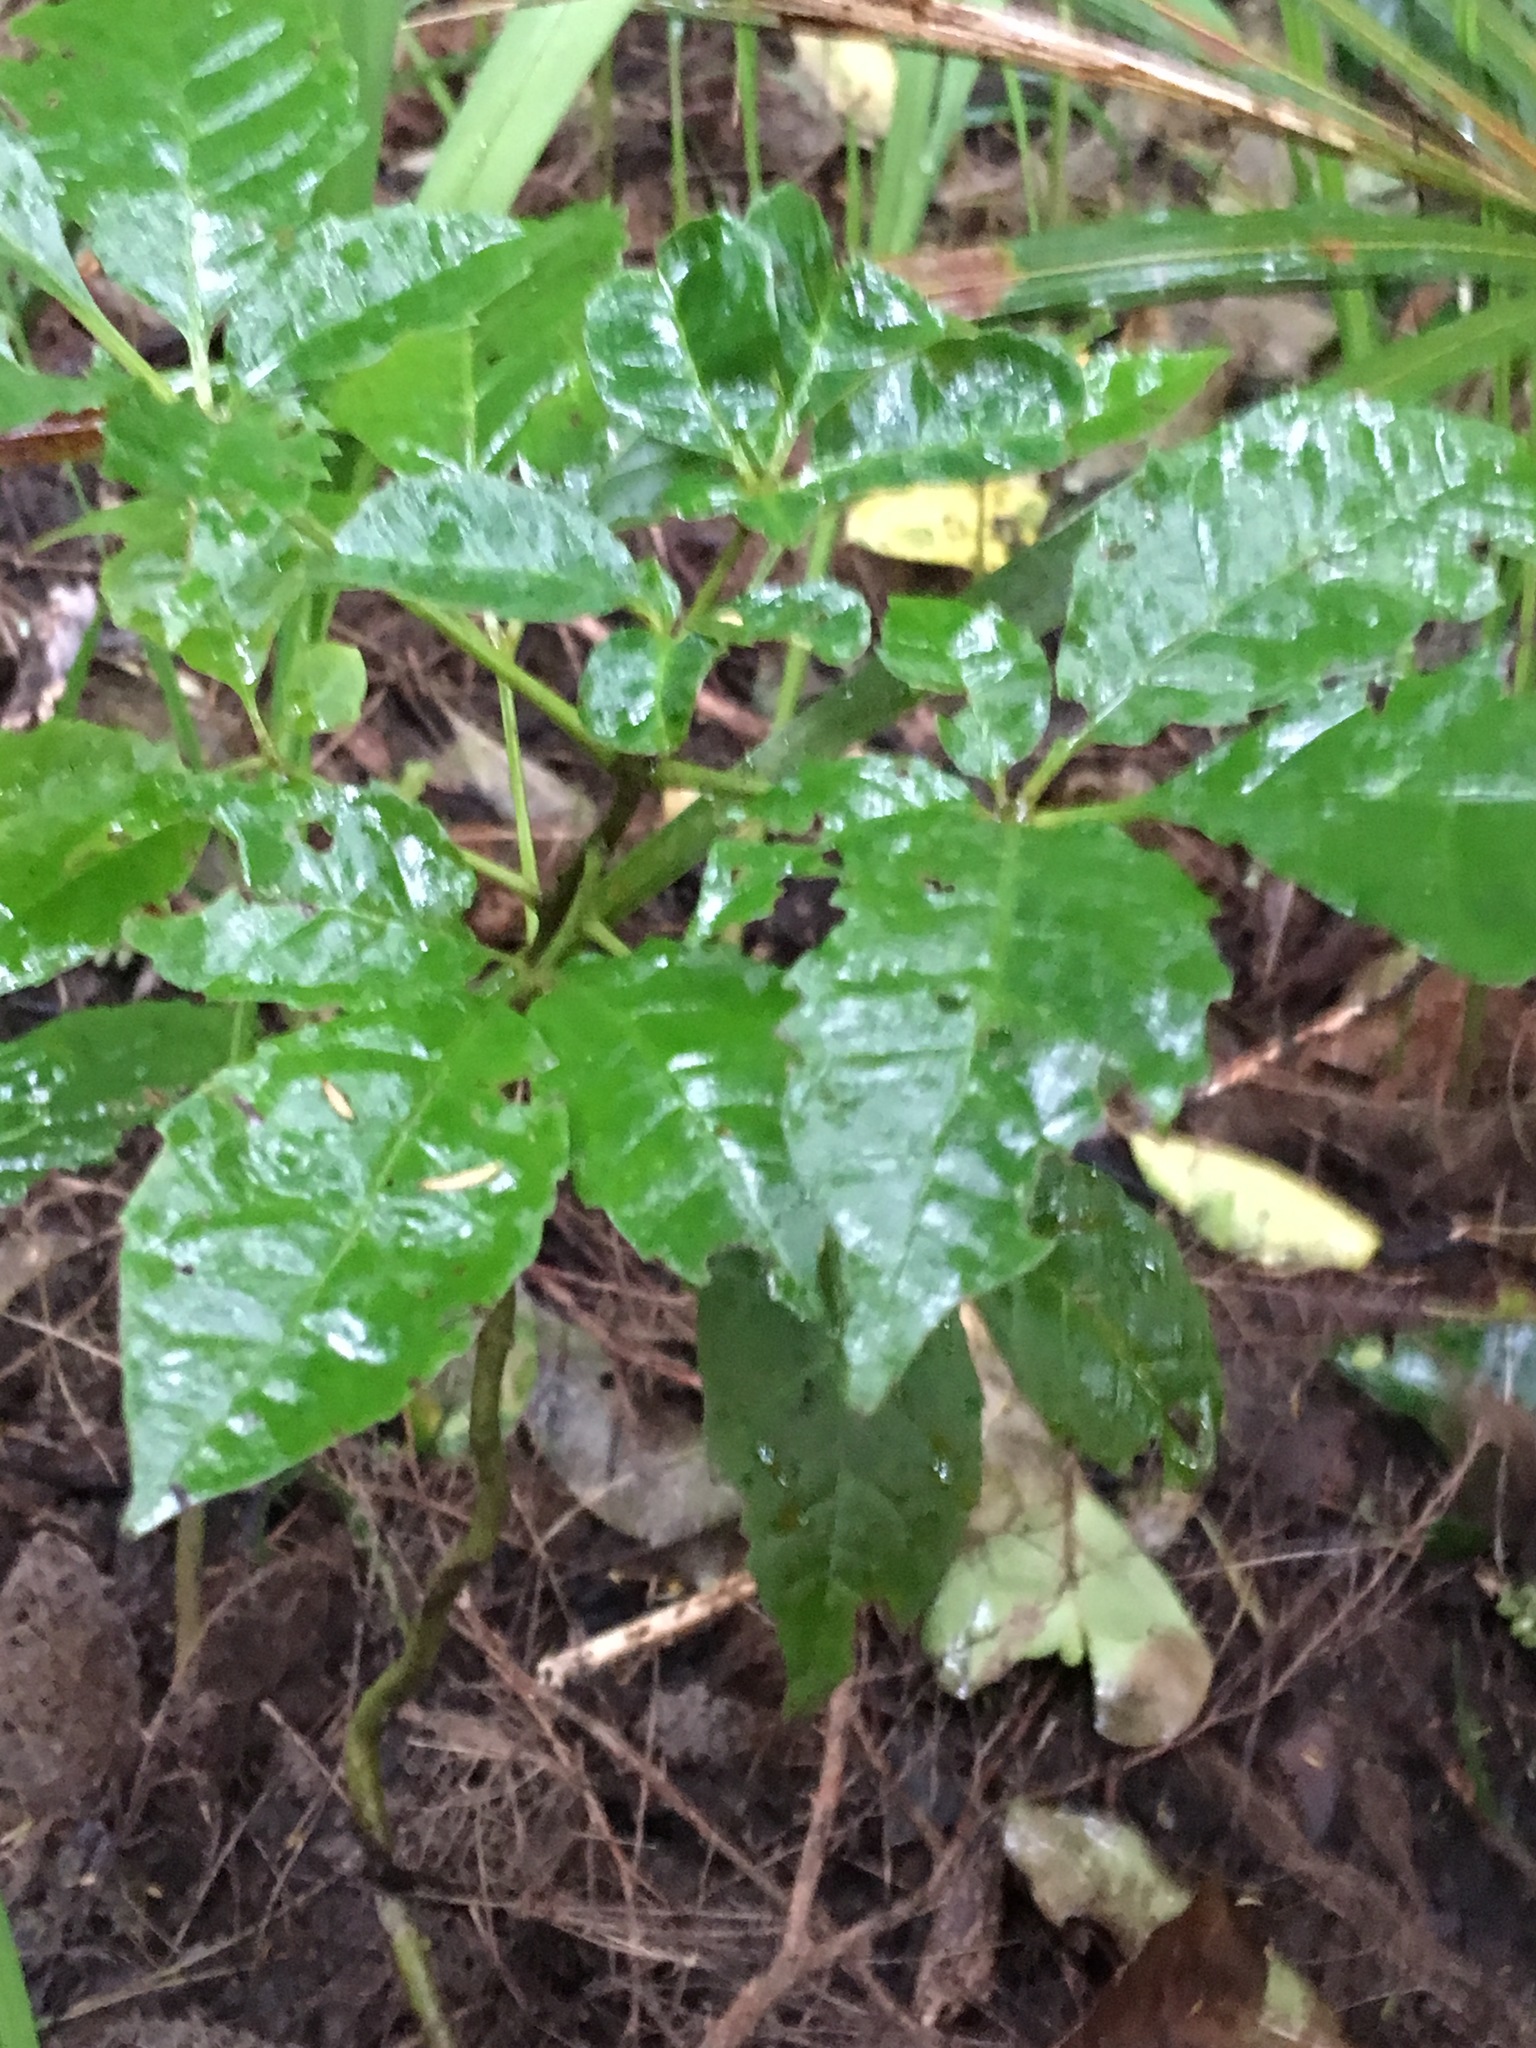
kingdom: Plantae
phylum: Tracheophyta
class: Magnoliopsida
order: Lamiales
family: Lamiaceae
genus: Vitex
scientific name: Vitex lucens
